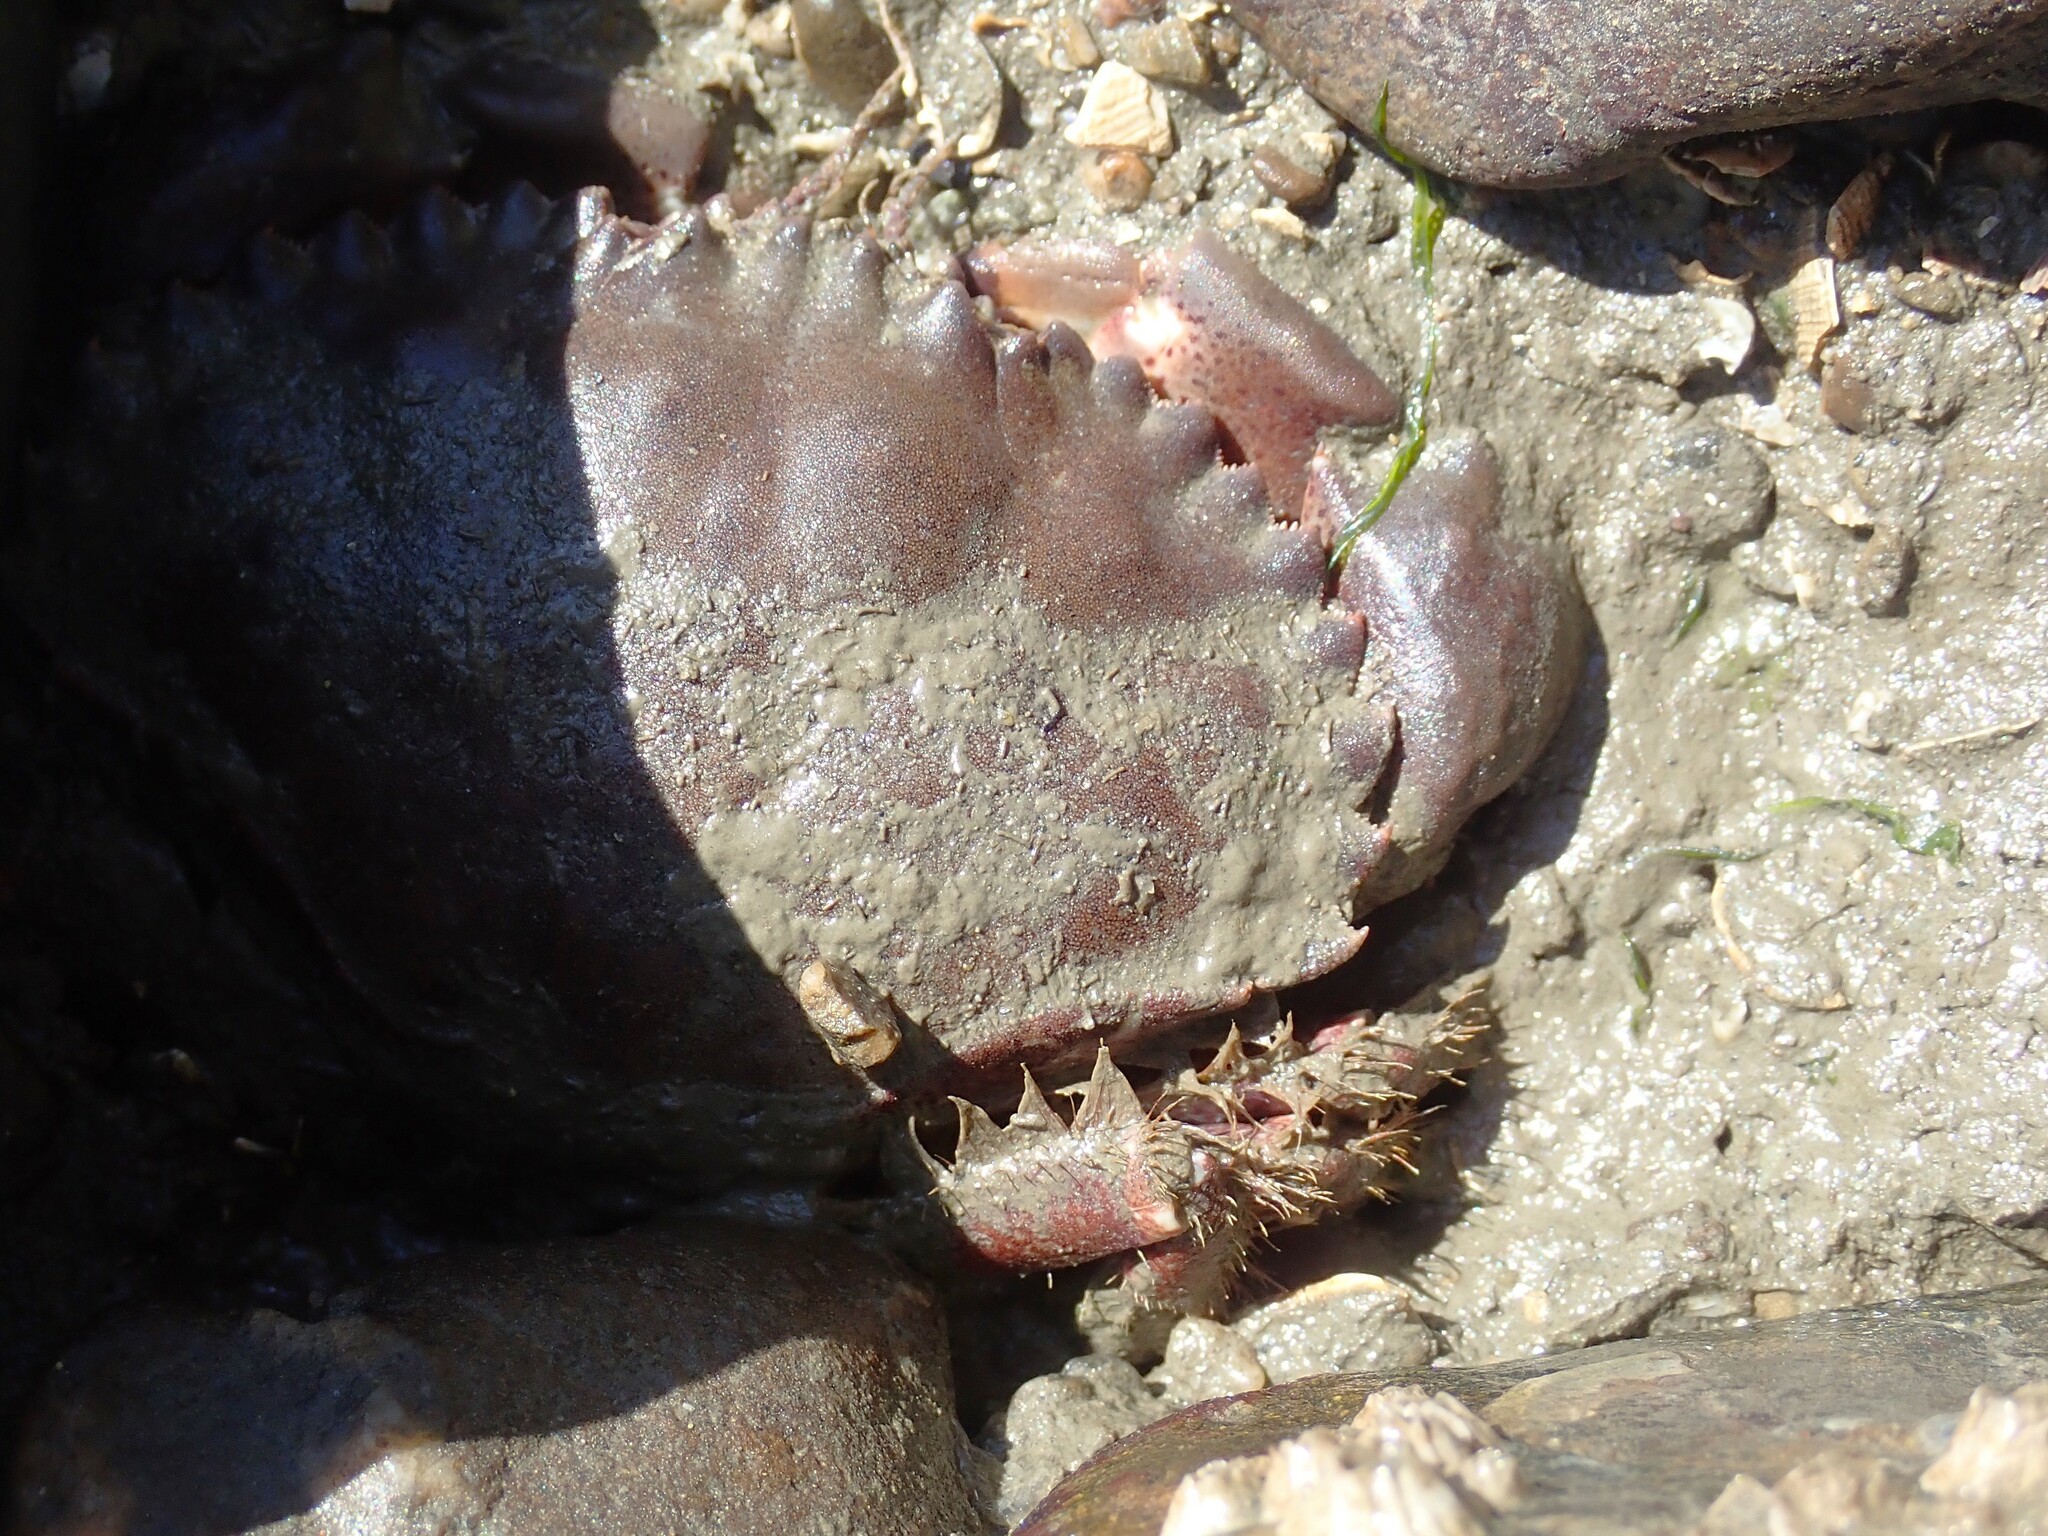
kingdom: Animalia
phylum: Arthropoda
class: Malacostraca
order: Decapoda
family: Cancridae
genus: Romaleon
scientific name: Romaleon antennarium
